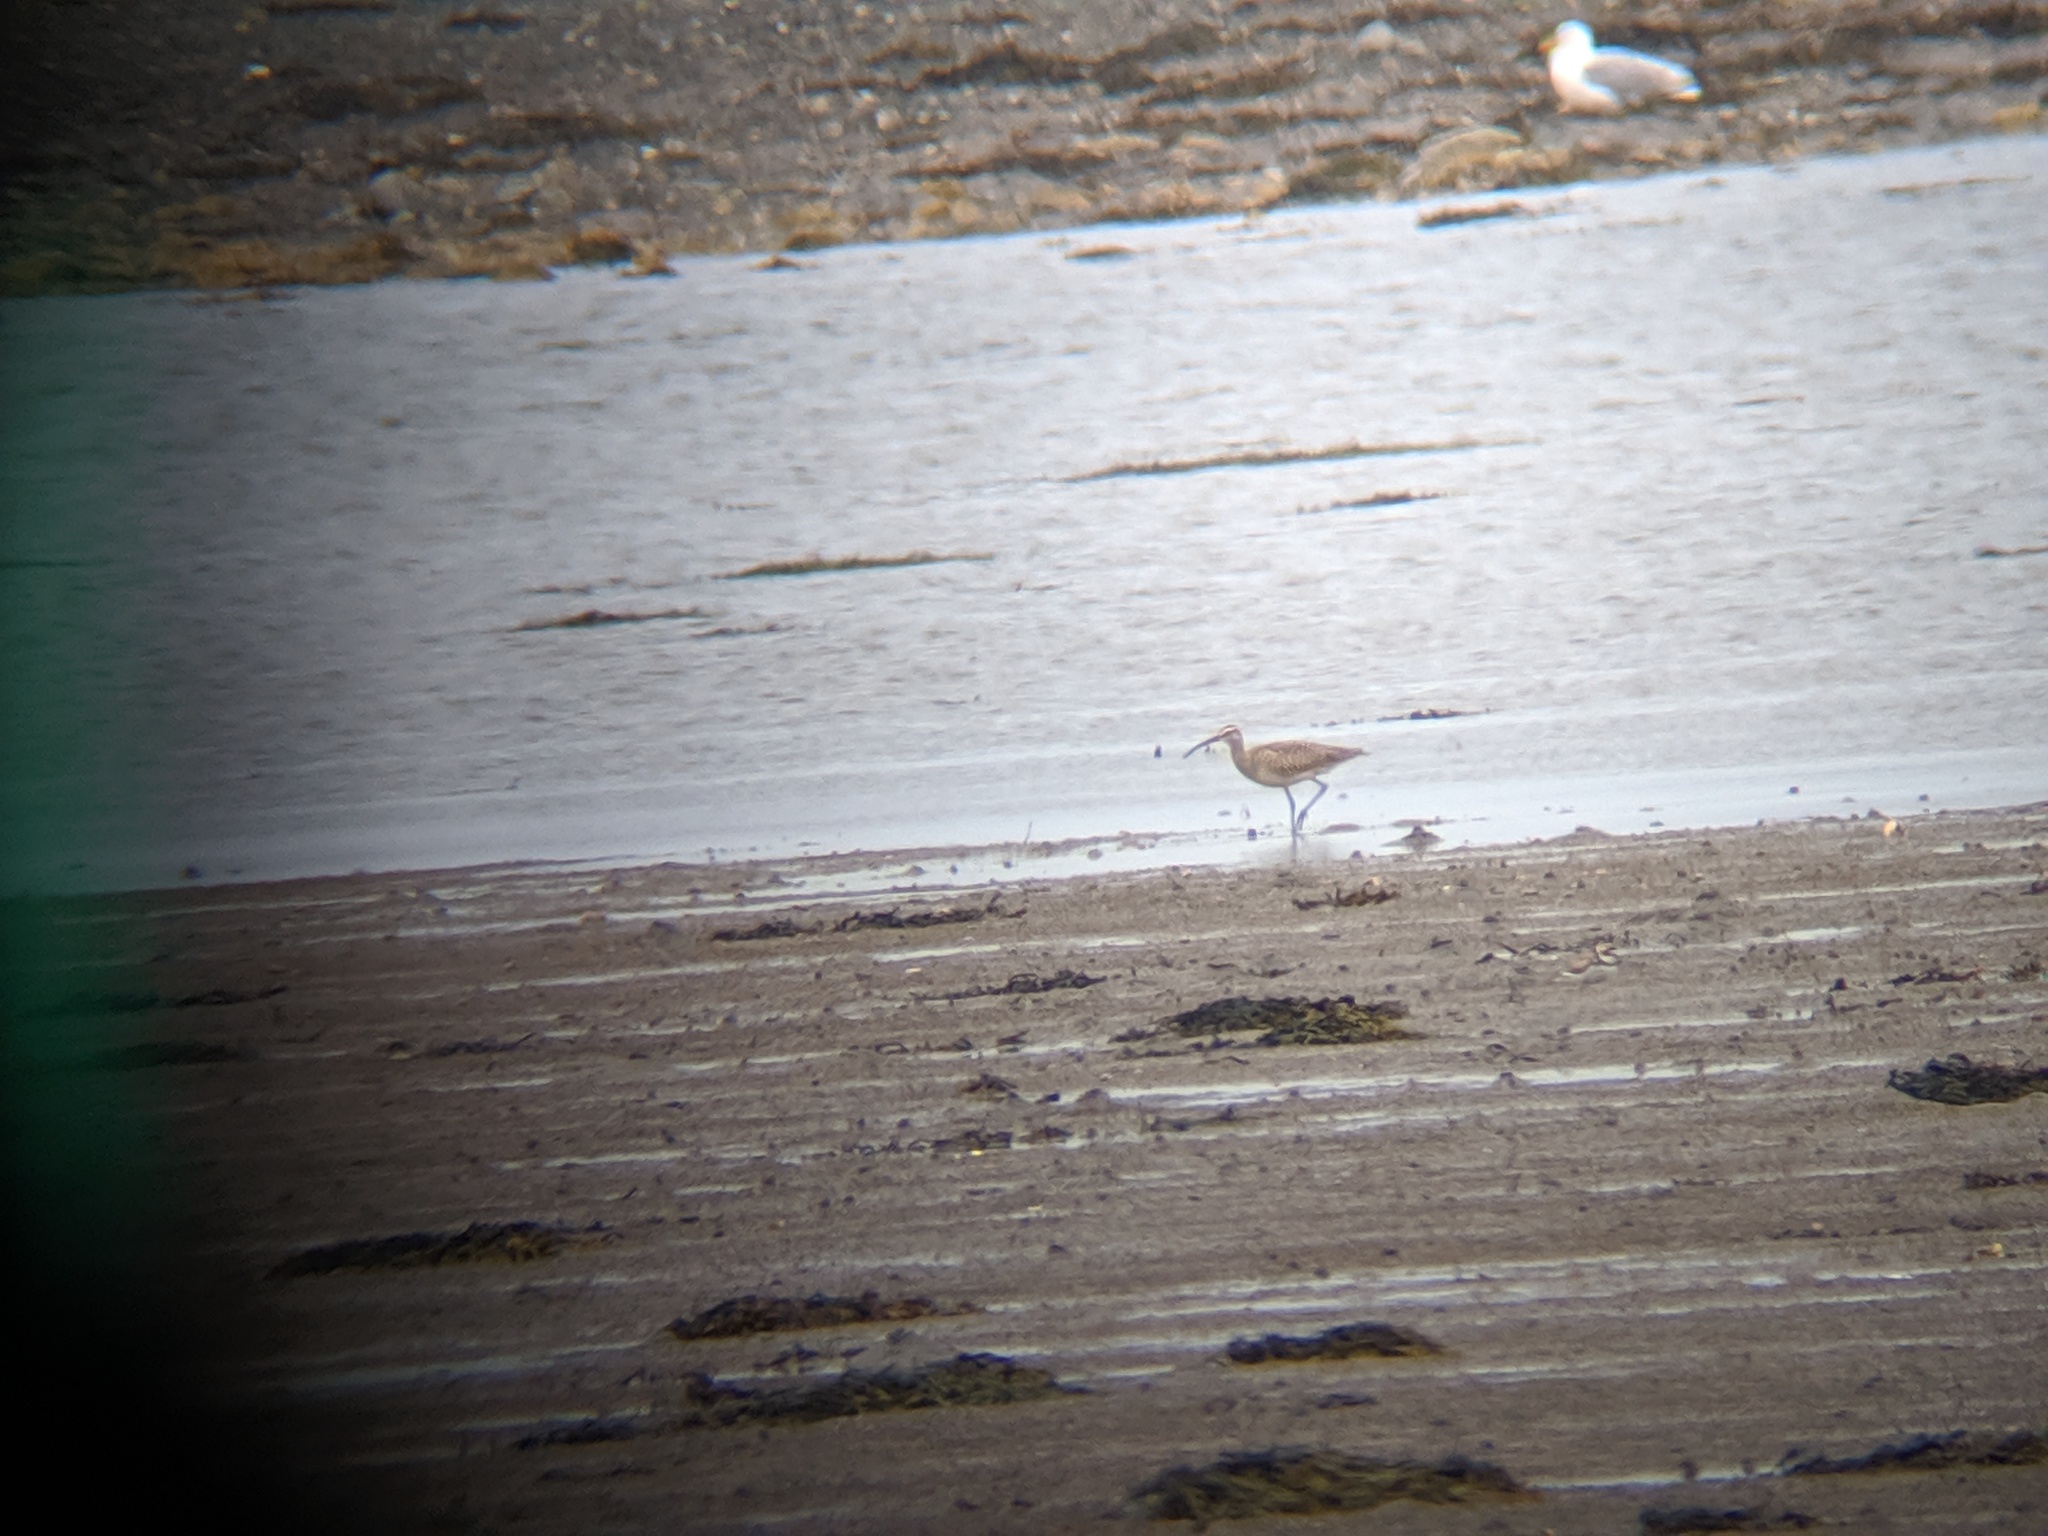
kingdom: Animalia
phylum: Chordata
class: Aves
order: Charadriiformes
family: Scolopacidae
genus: Numenius
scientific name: Numenius phaeopus
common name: Whimbrel
